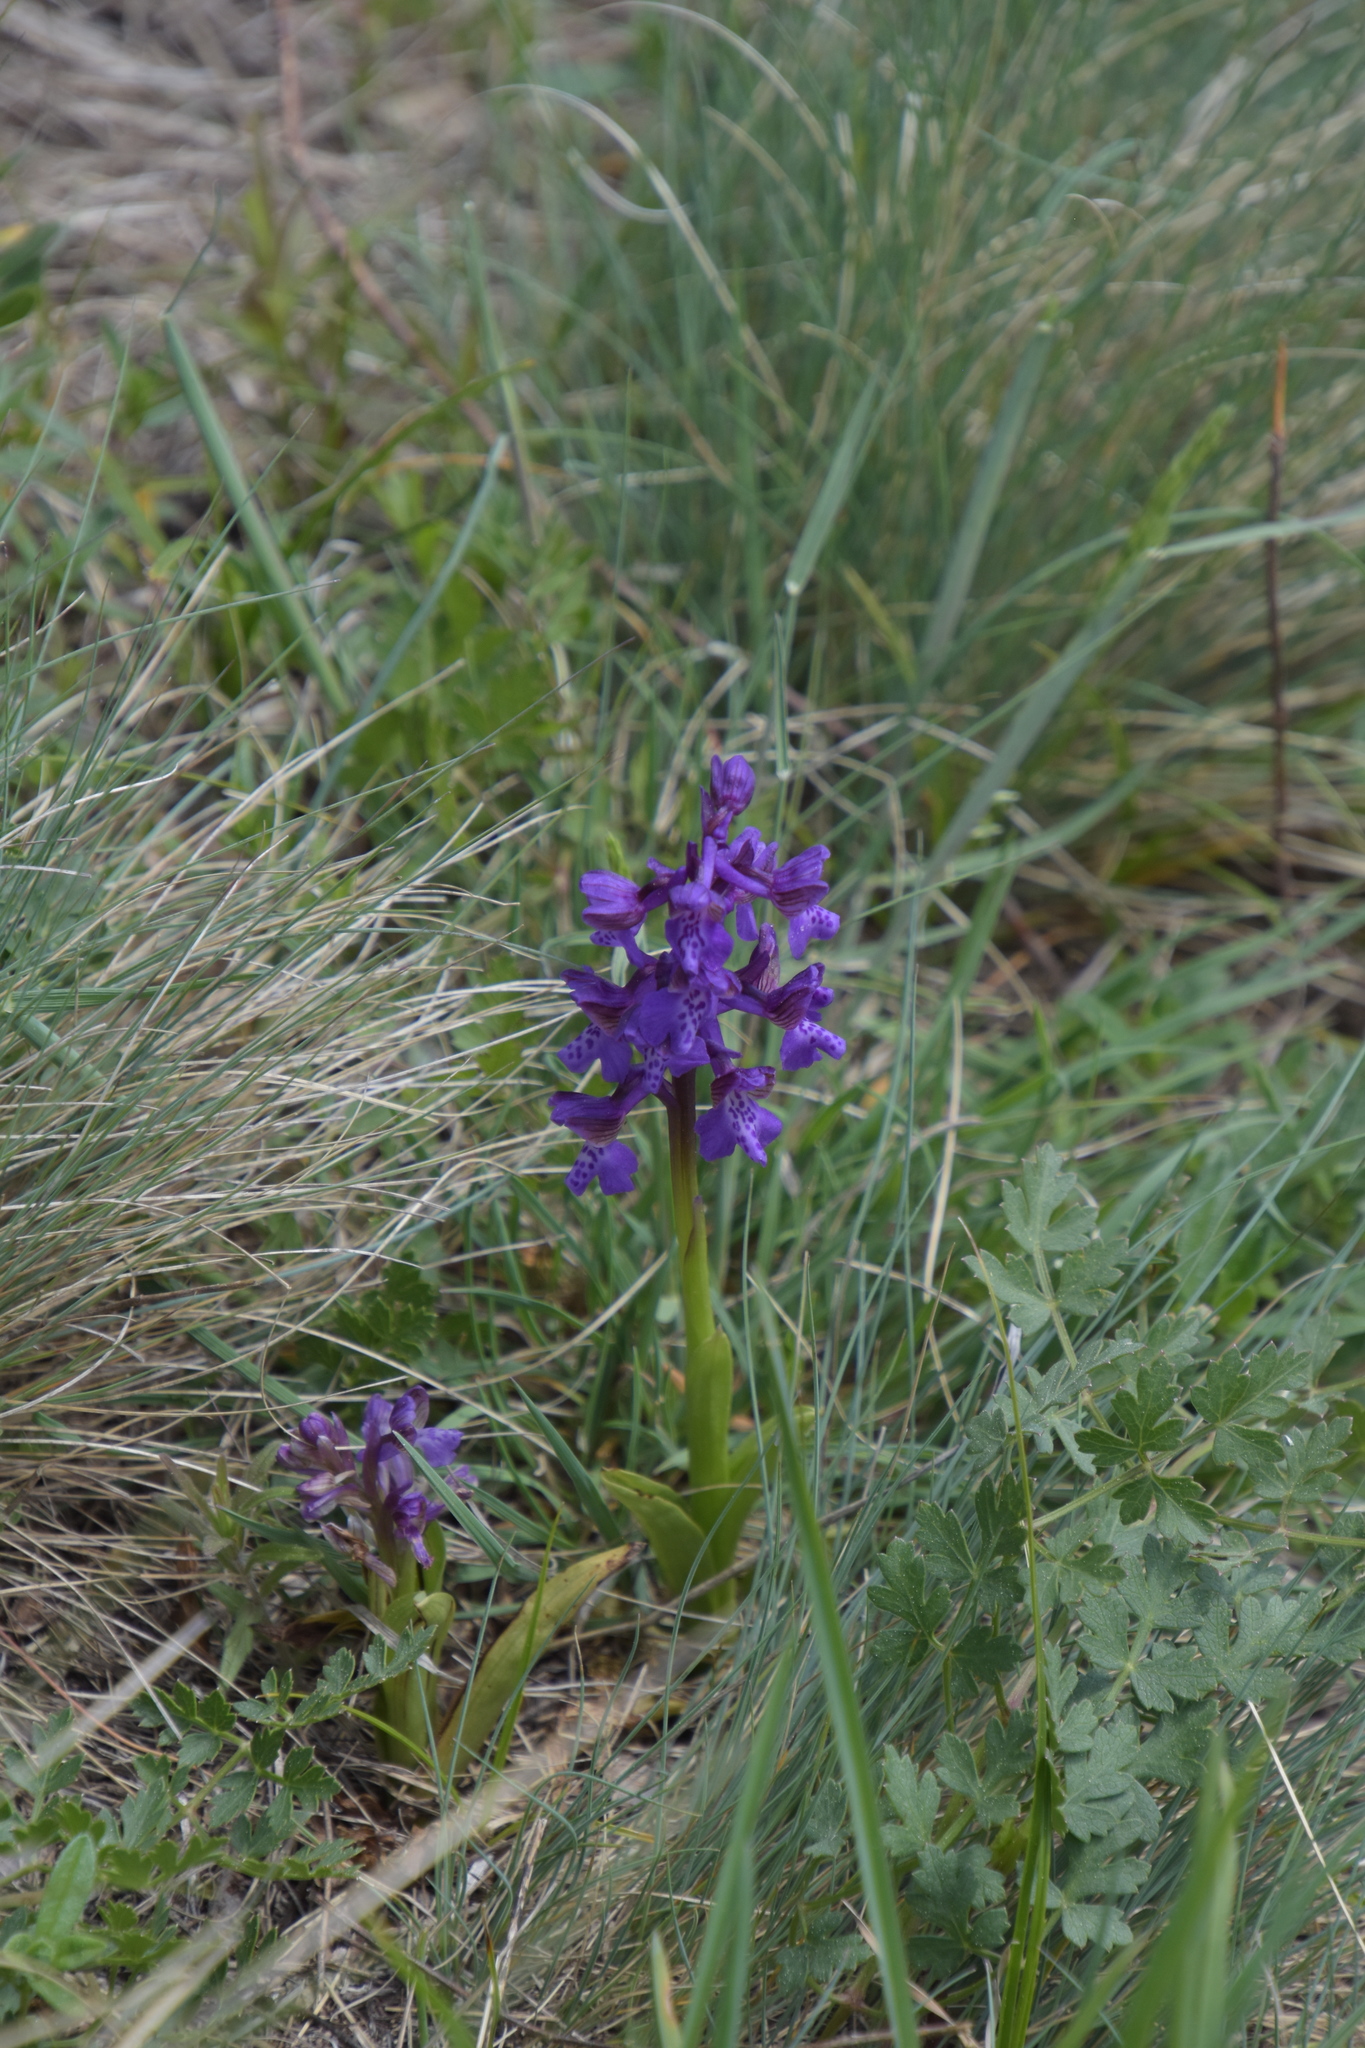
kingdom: Plantae
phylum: Tracheophyta
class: Liliopsida
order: Asparagales
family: Orchidaceae
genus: Anacamptis
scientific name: Anacamptis morio
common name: Green-winged orchid
